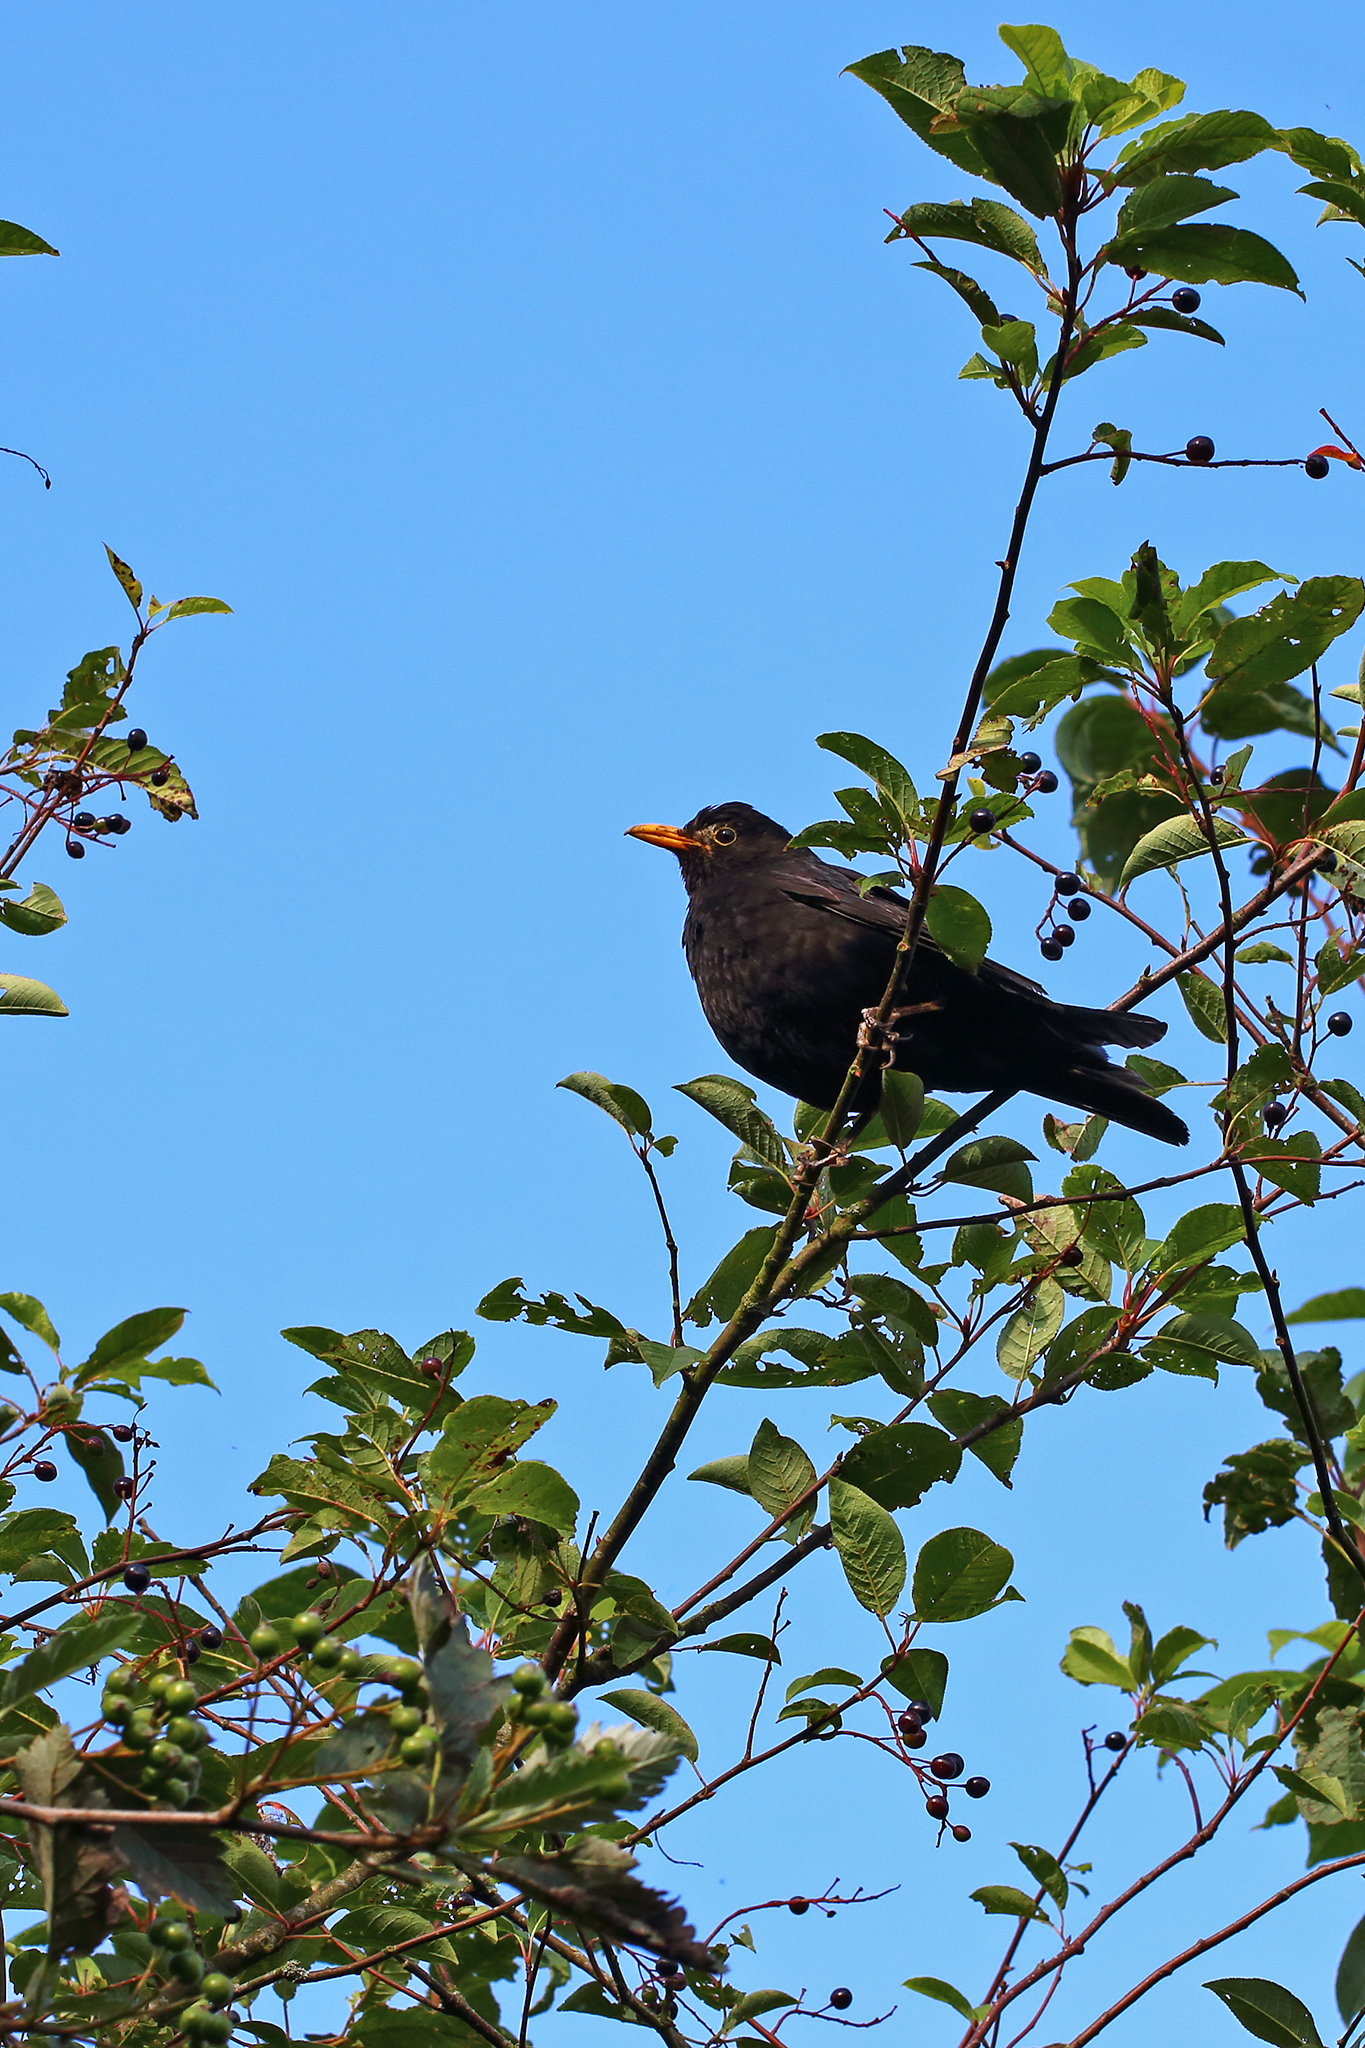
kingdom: Animalia
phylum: Chordata
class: Aves
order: Passeriformes
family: Turdidae
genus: Turdus
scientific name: Turdus merula
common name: Common blackbird
